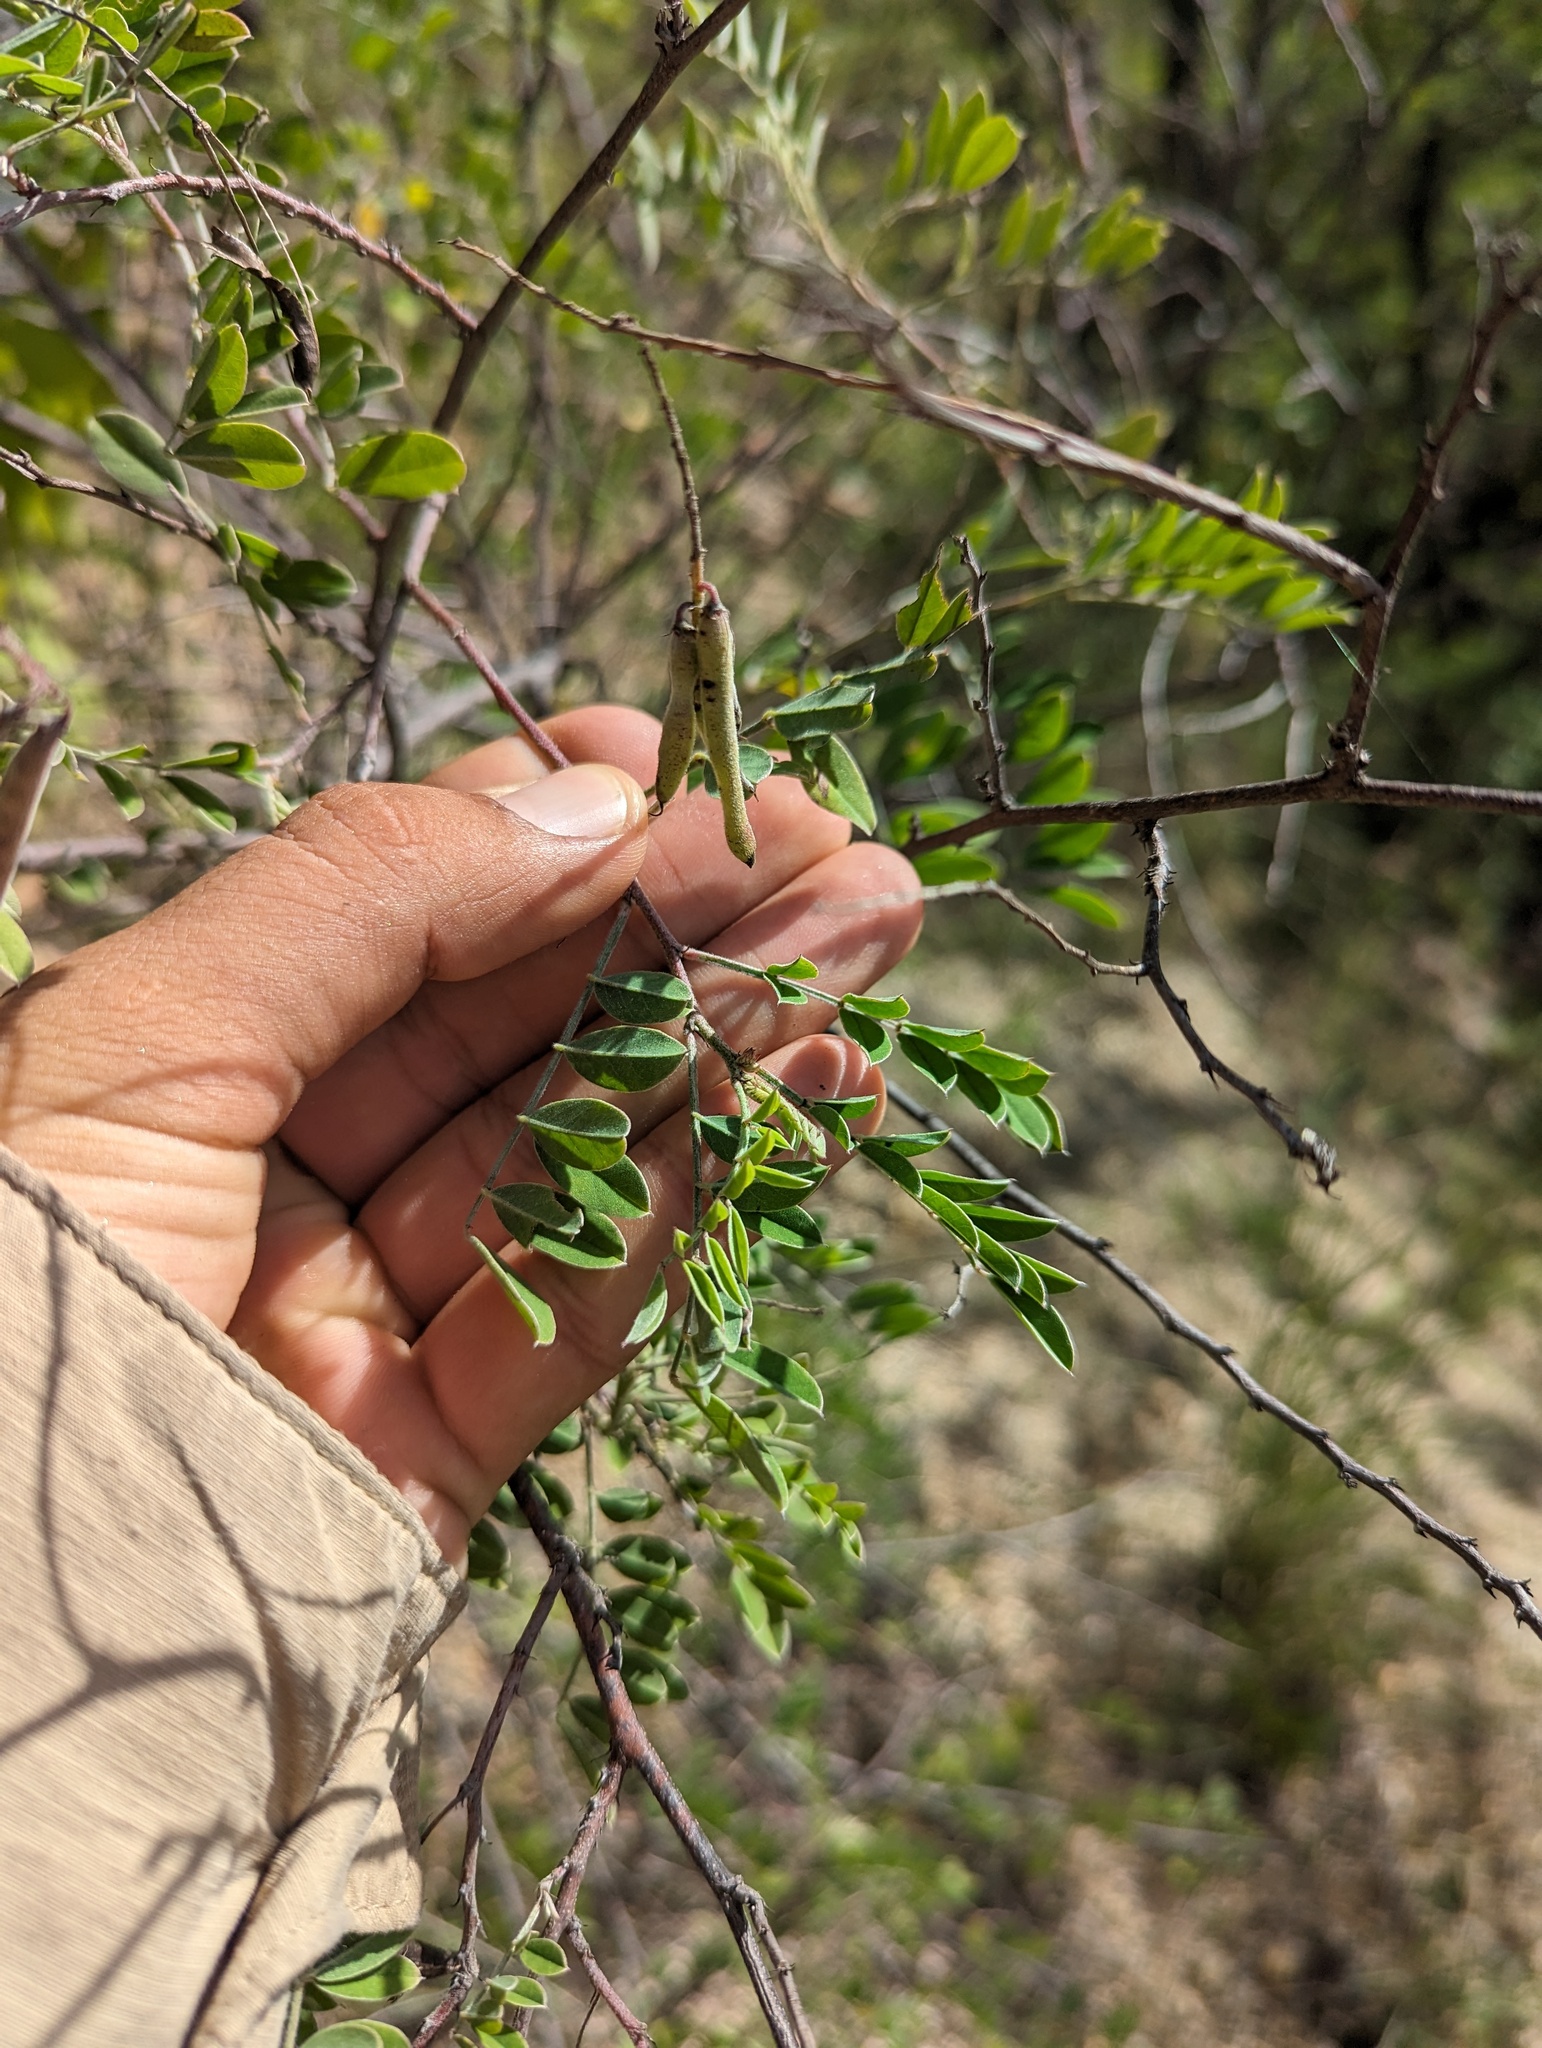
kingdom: Plantae
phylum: Tracheophyta
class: Magnoliopsida
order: Fabales
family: Fabaceae
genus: Indigofera
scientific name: Indigofera fruticosa
